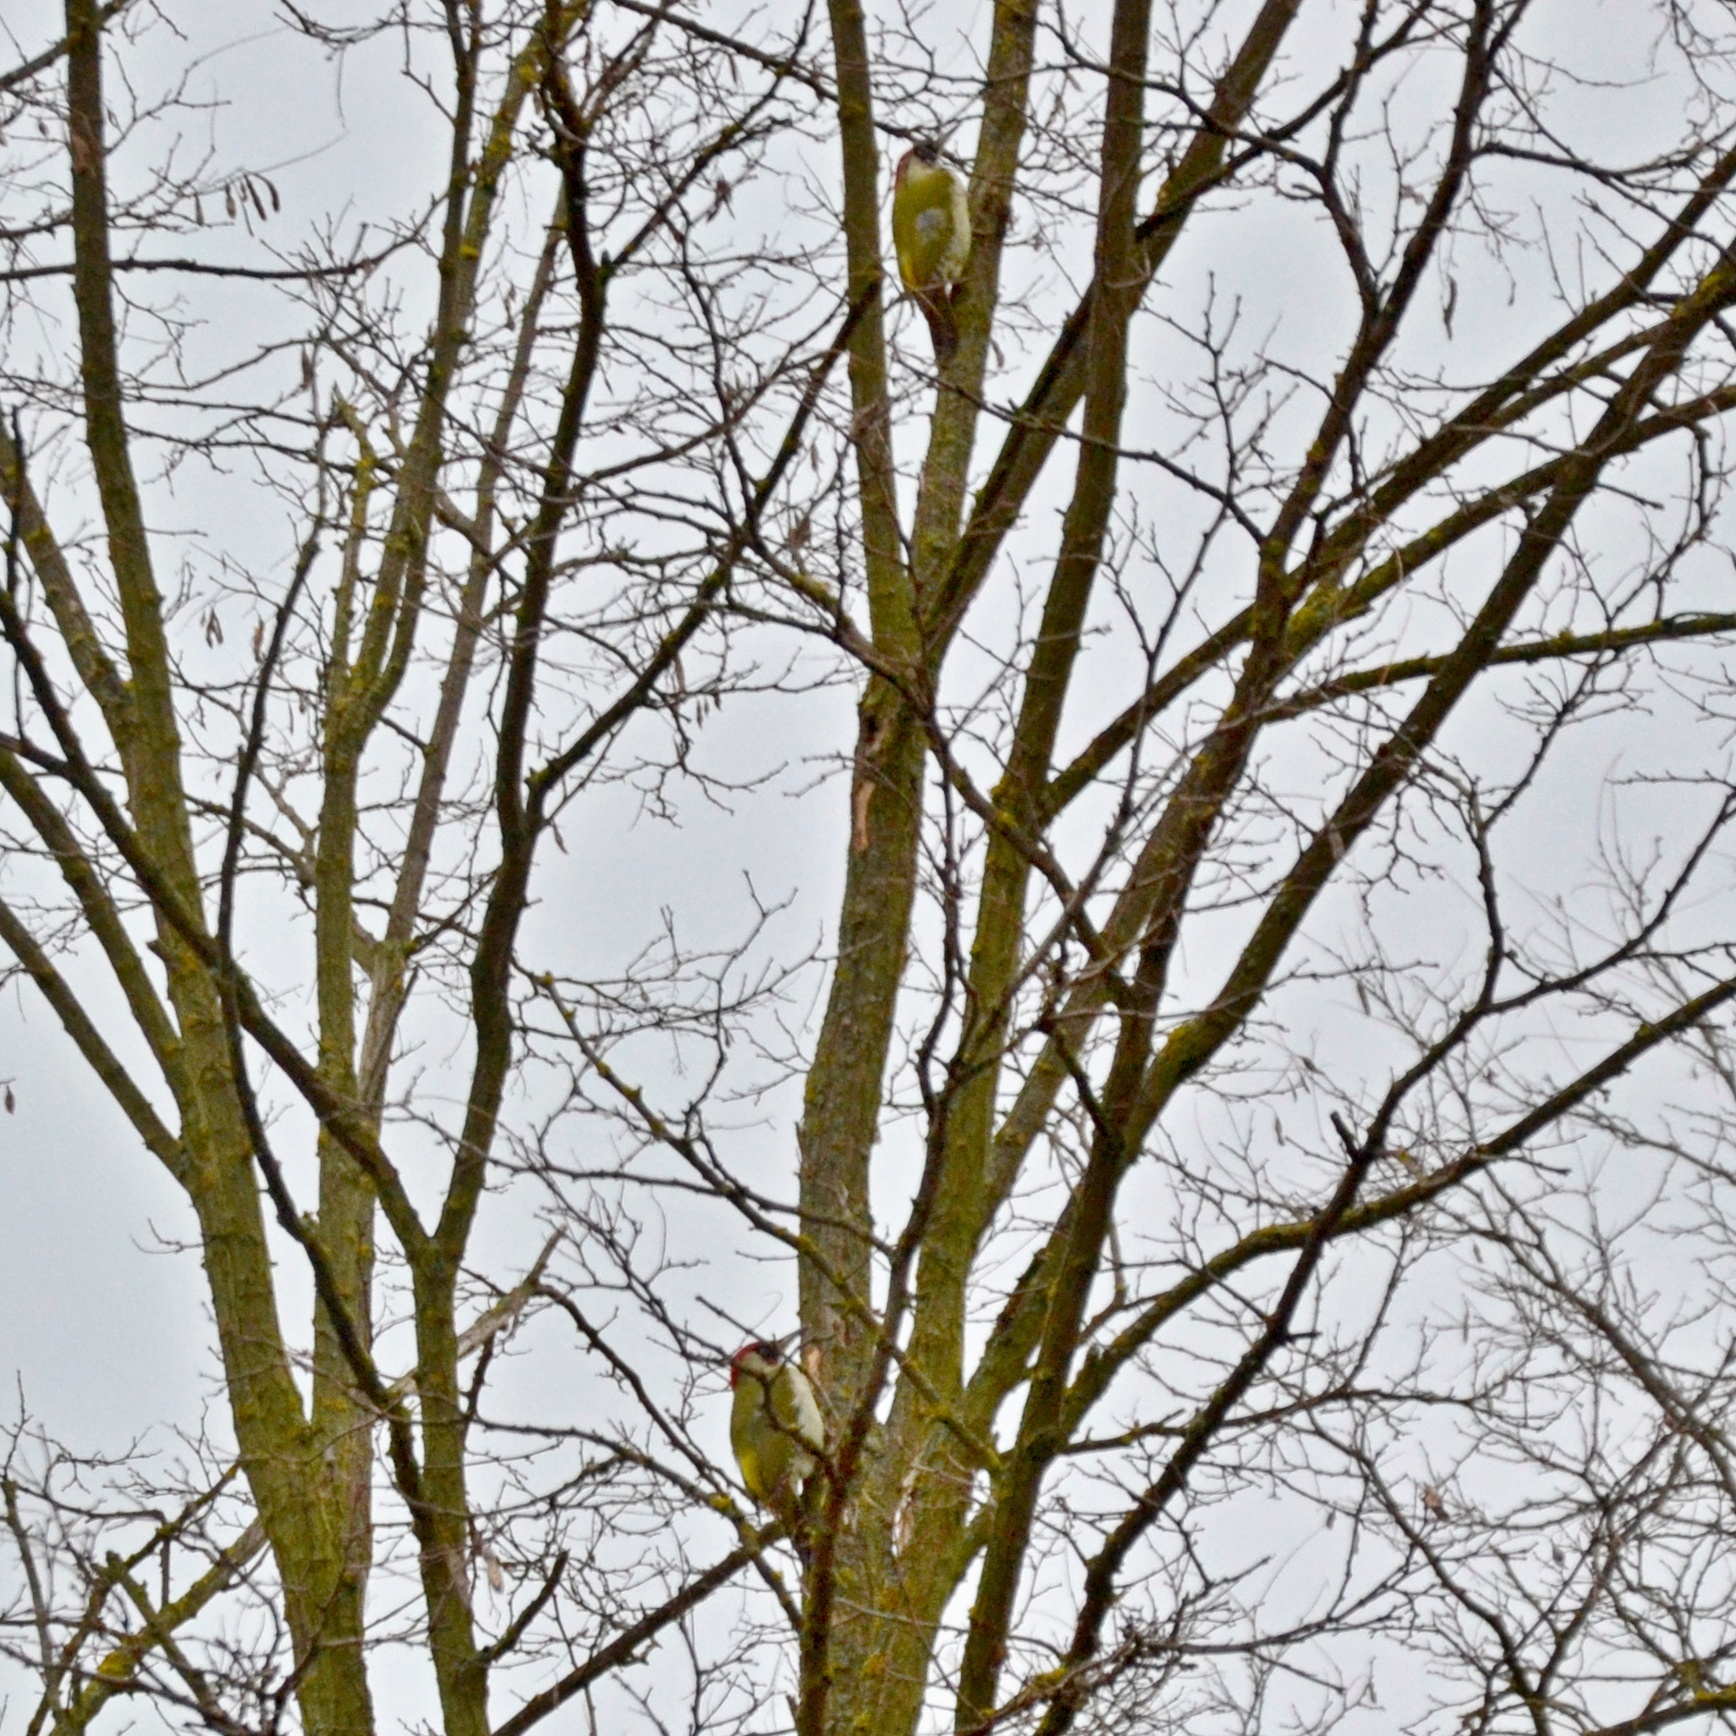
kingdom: Animalia
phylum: Chordata
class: Aves
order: Piciformes
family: Picidae
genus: Picus
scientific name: Picus viridis
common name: European green woodpecker
